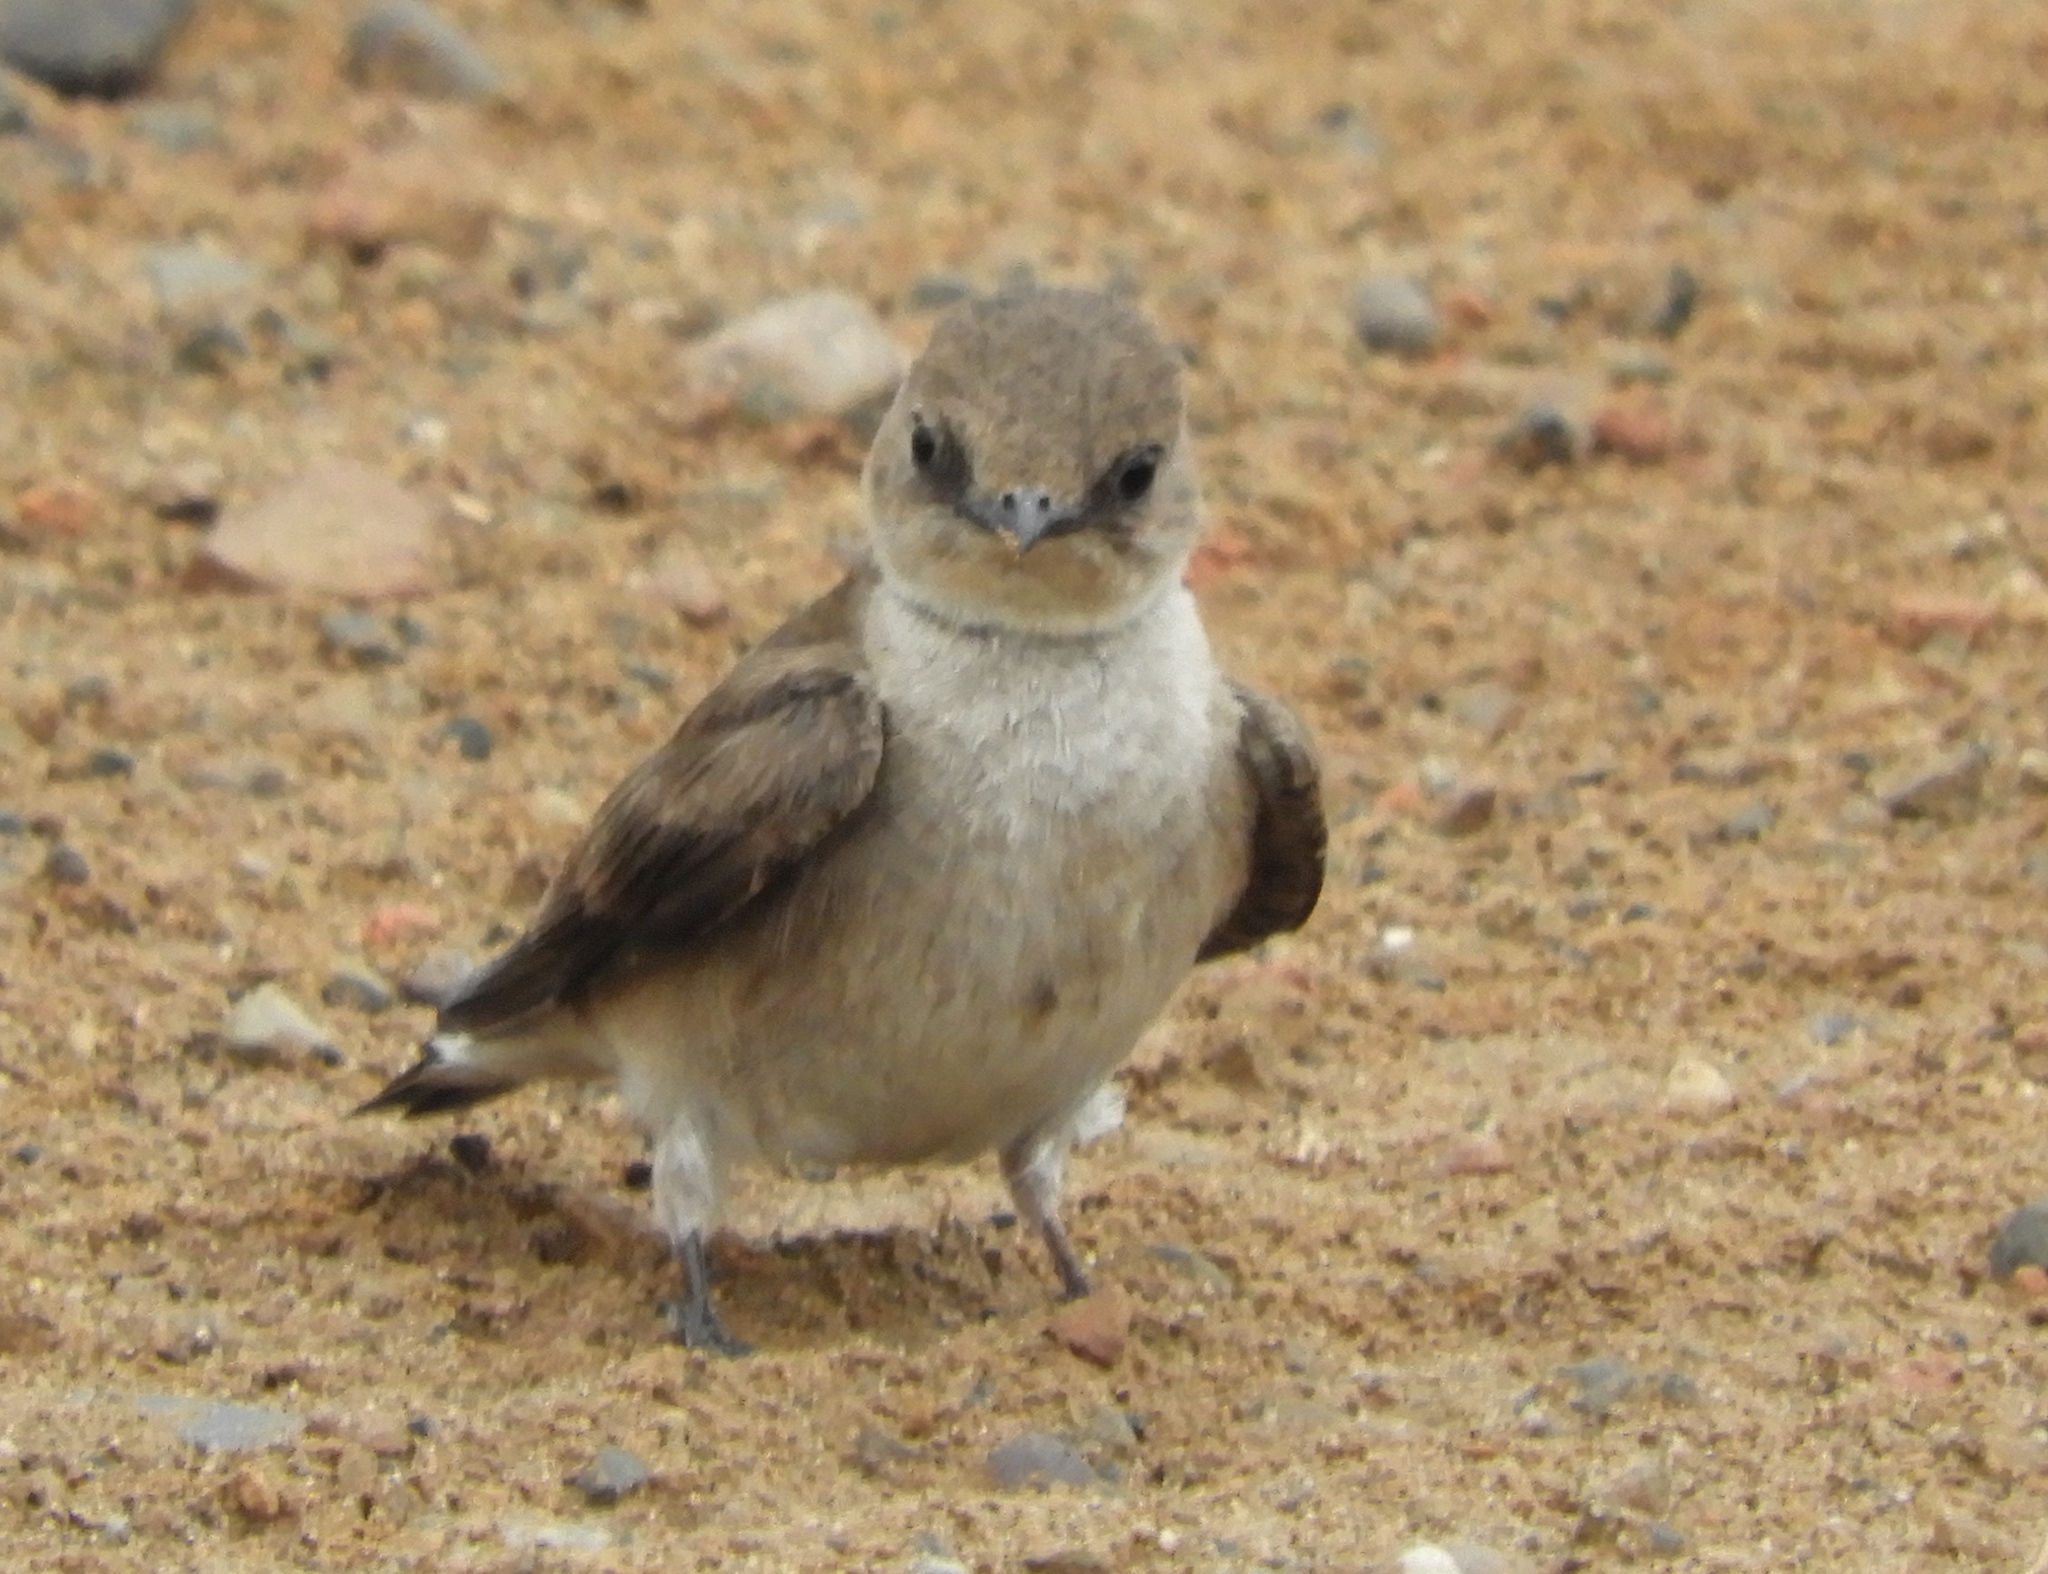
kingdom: Animalia
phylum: Chordata
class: Aves
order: Passeriformes
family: Hirundinidae
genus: Stelgidopteryx
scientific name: Stelgidopteryx serripennis
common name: Northern rough-winged swallow
